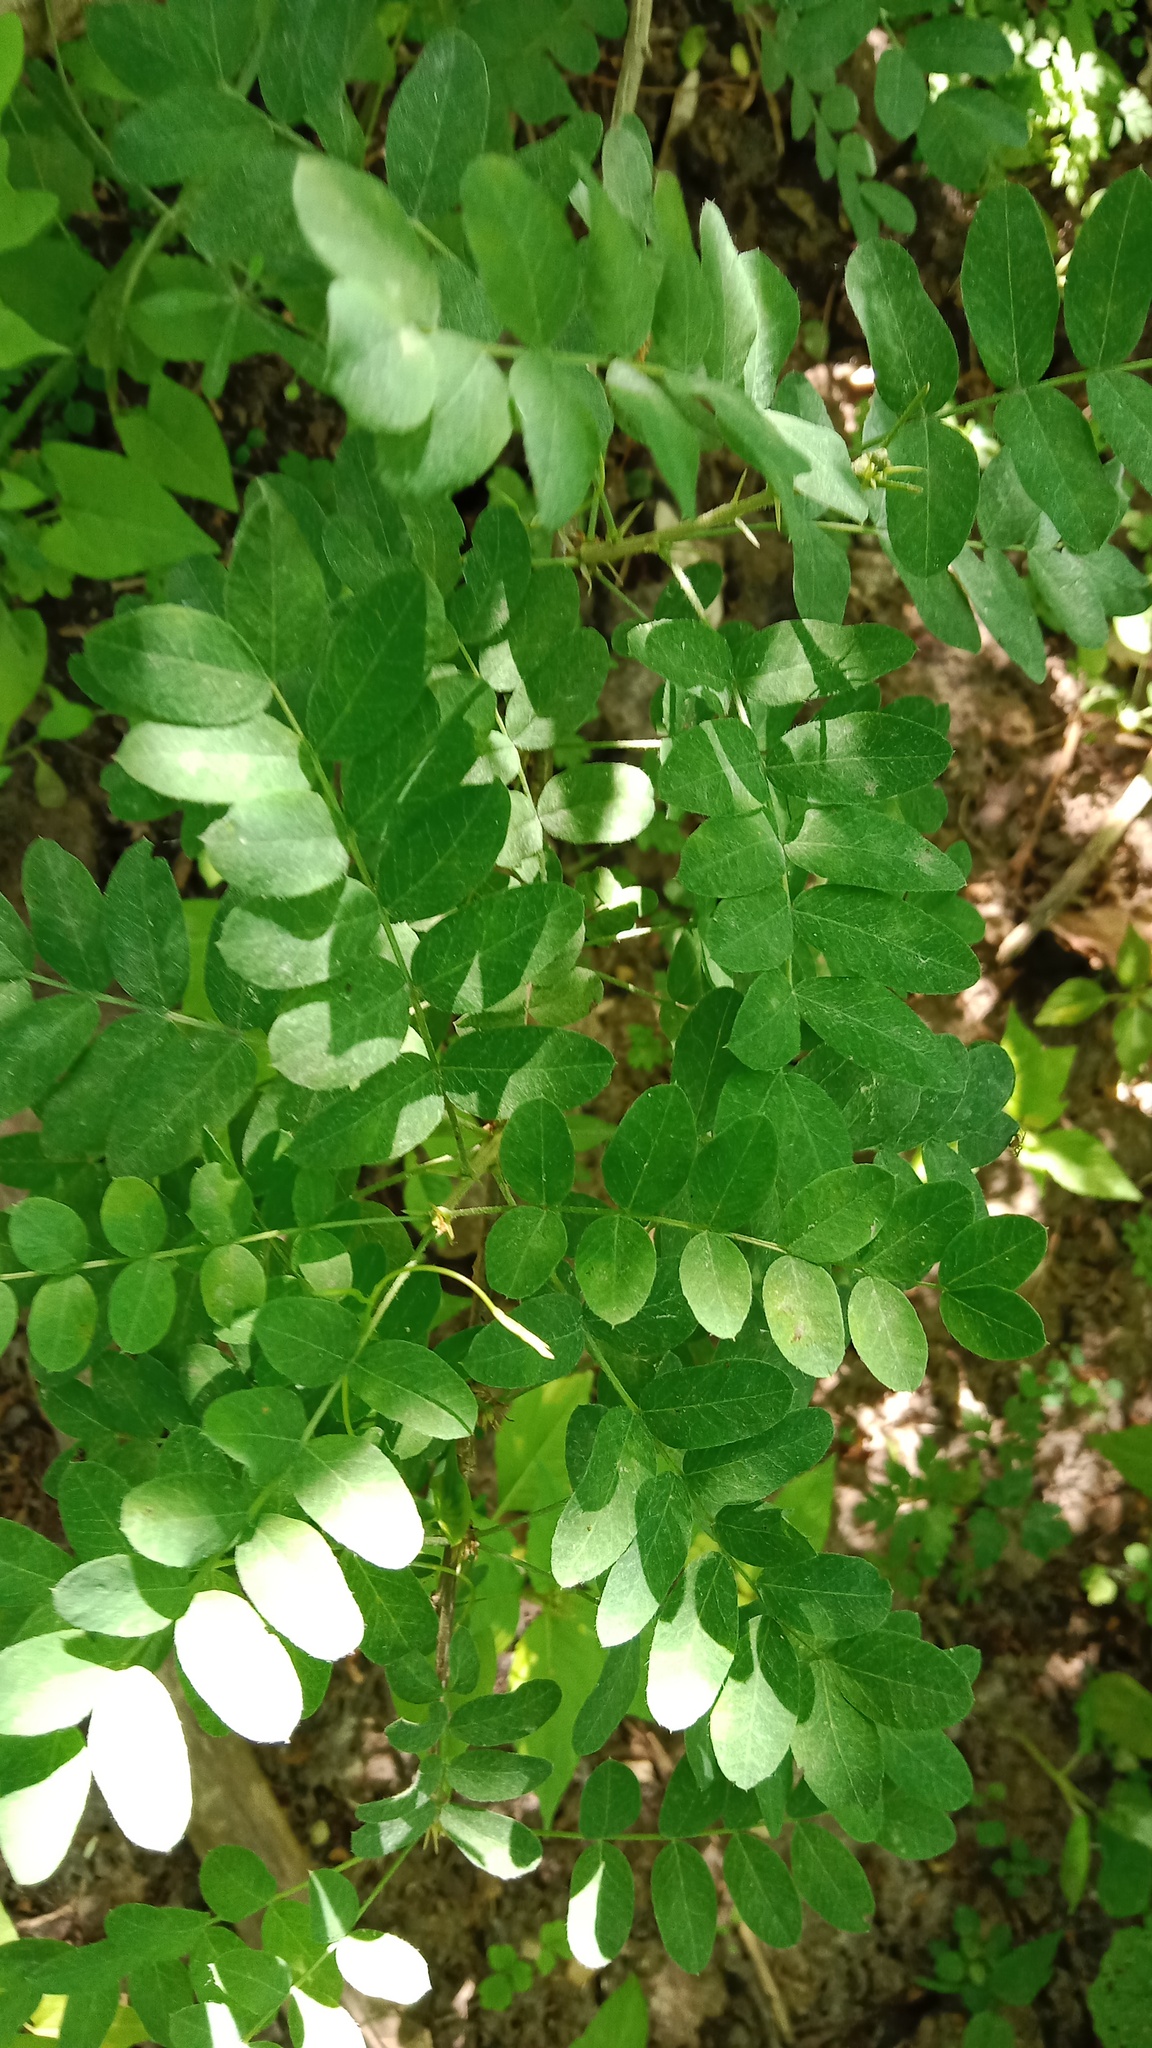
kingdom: Plantae
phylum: Tracheophyta
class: Magnoliopsida
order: Fabales
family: Fabaceae
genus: Caragana
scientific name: Caragana arborescens
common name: Siberian peashrub
